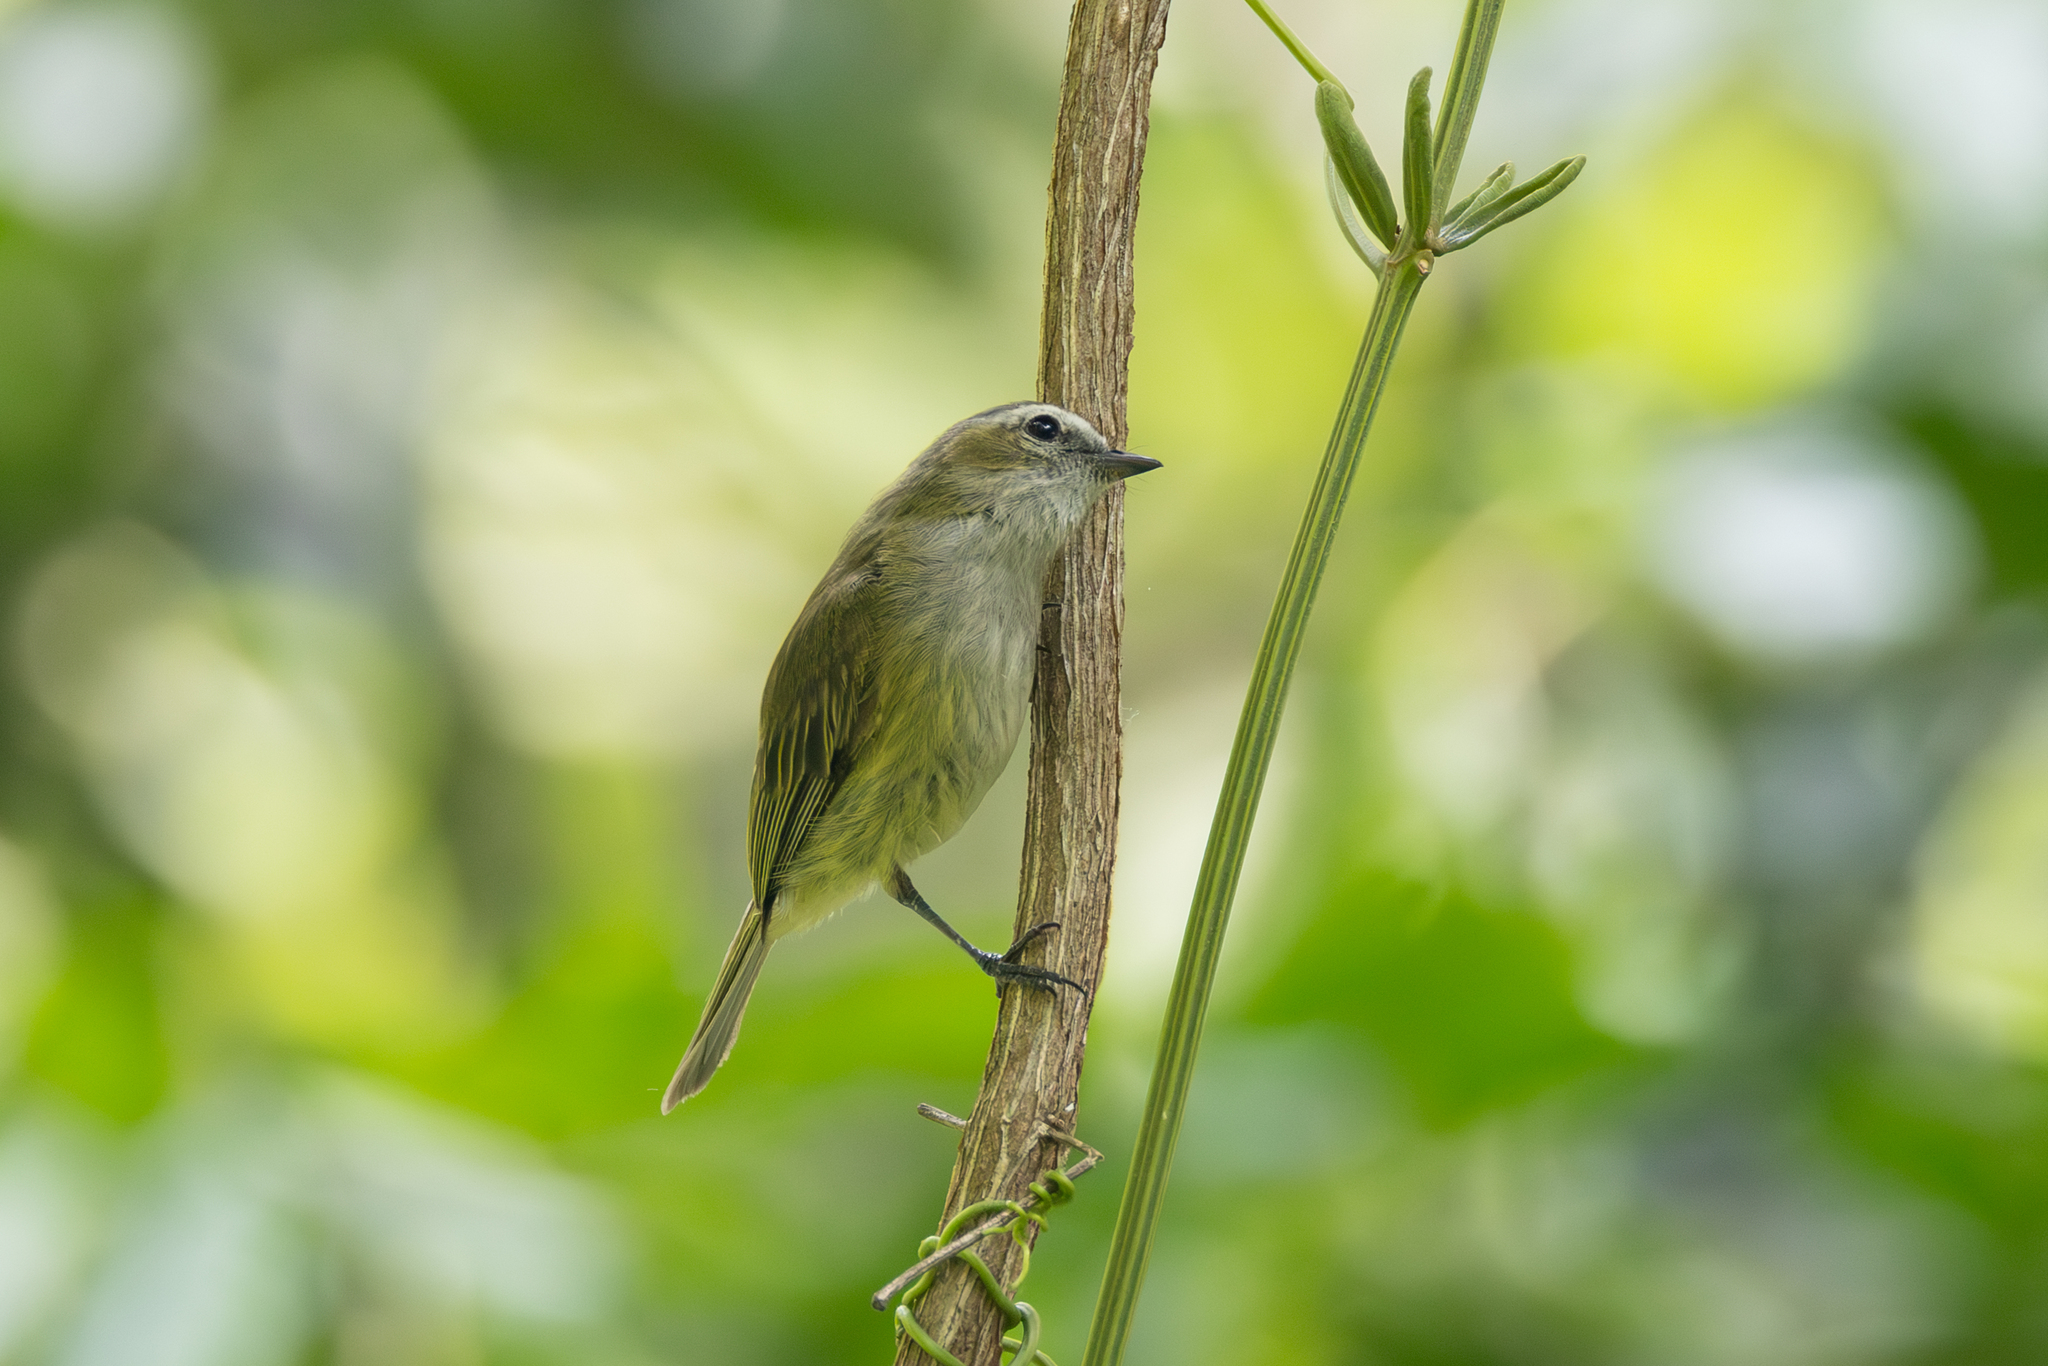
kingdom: Animalia
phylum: Chordata
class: Aves
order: Passeriformes
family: Tyrannidae
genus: Zimmerius
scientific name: Zimmerius vilissimus
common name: Paltry tyrannulet
